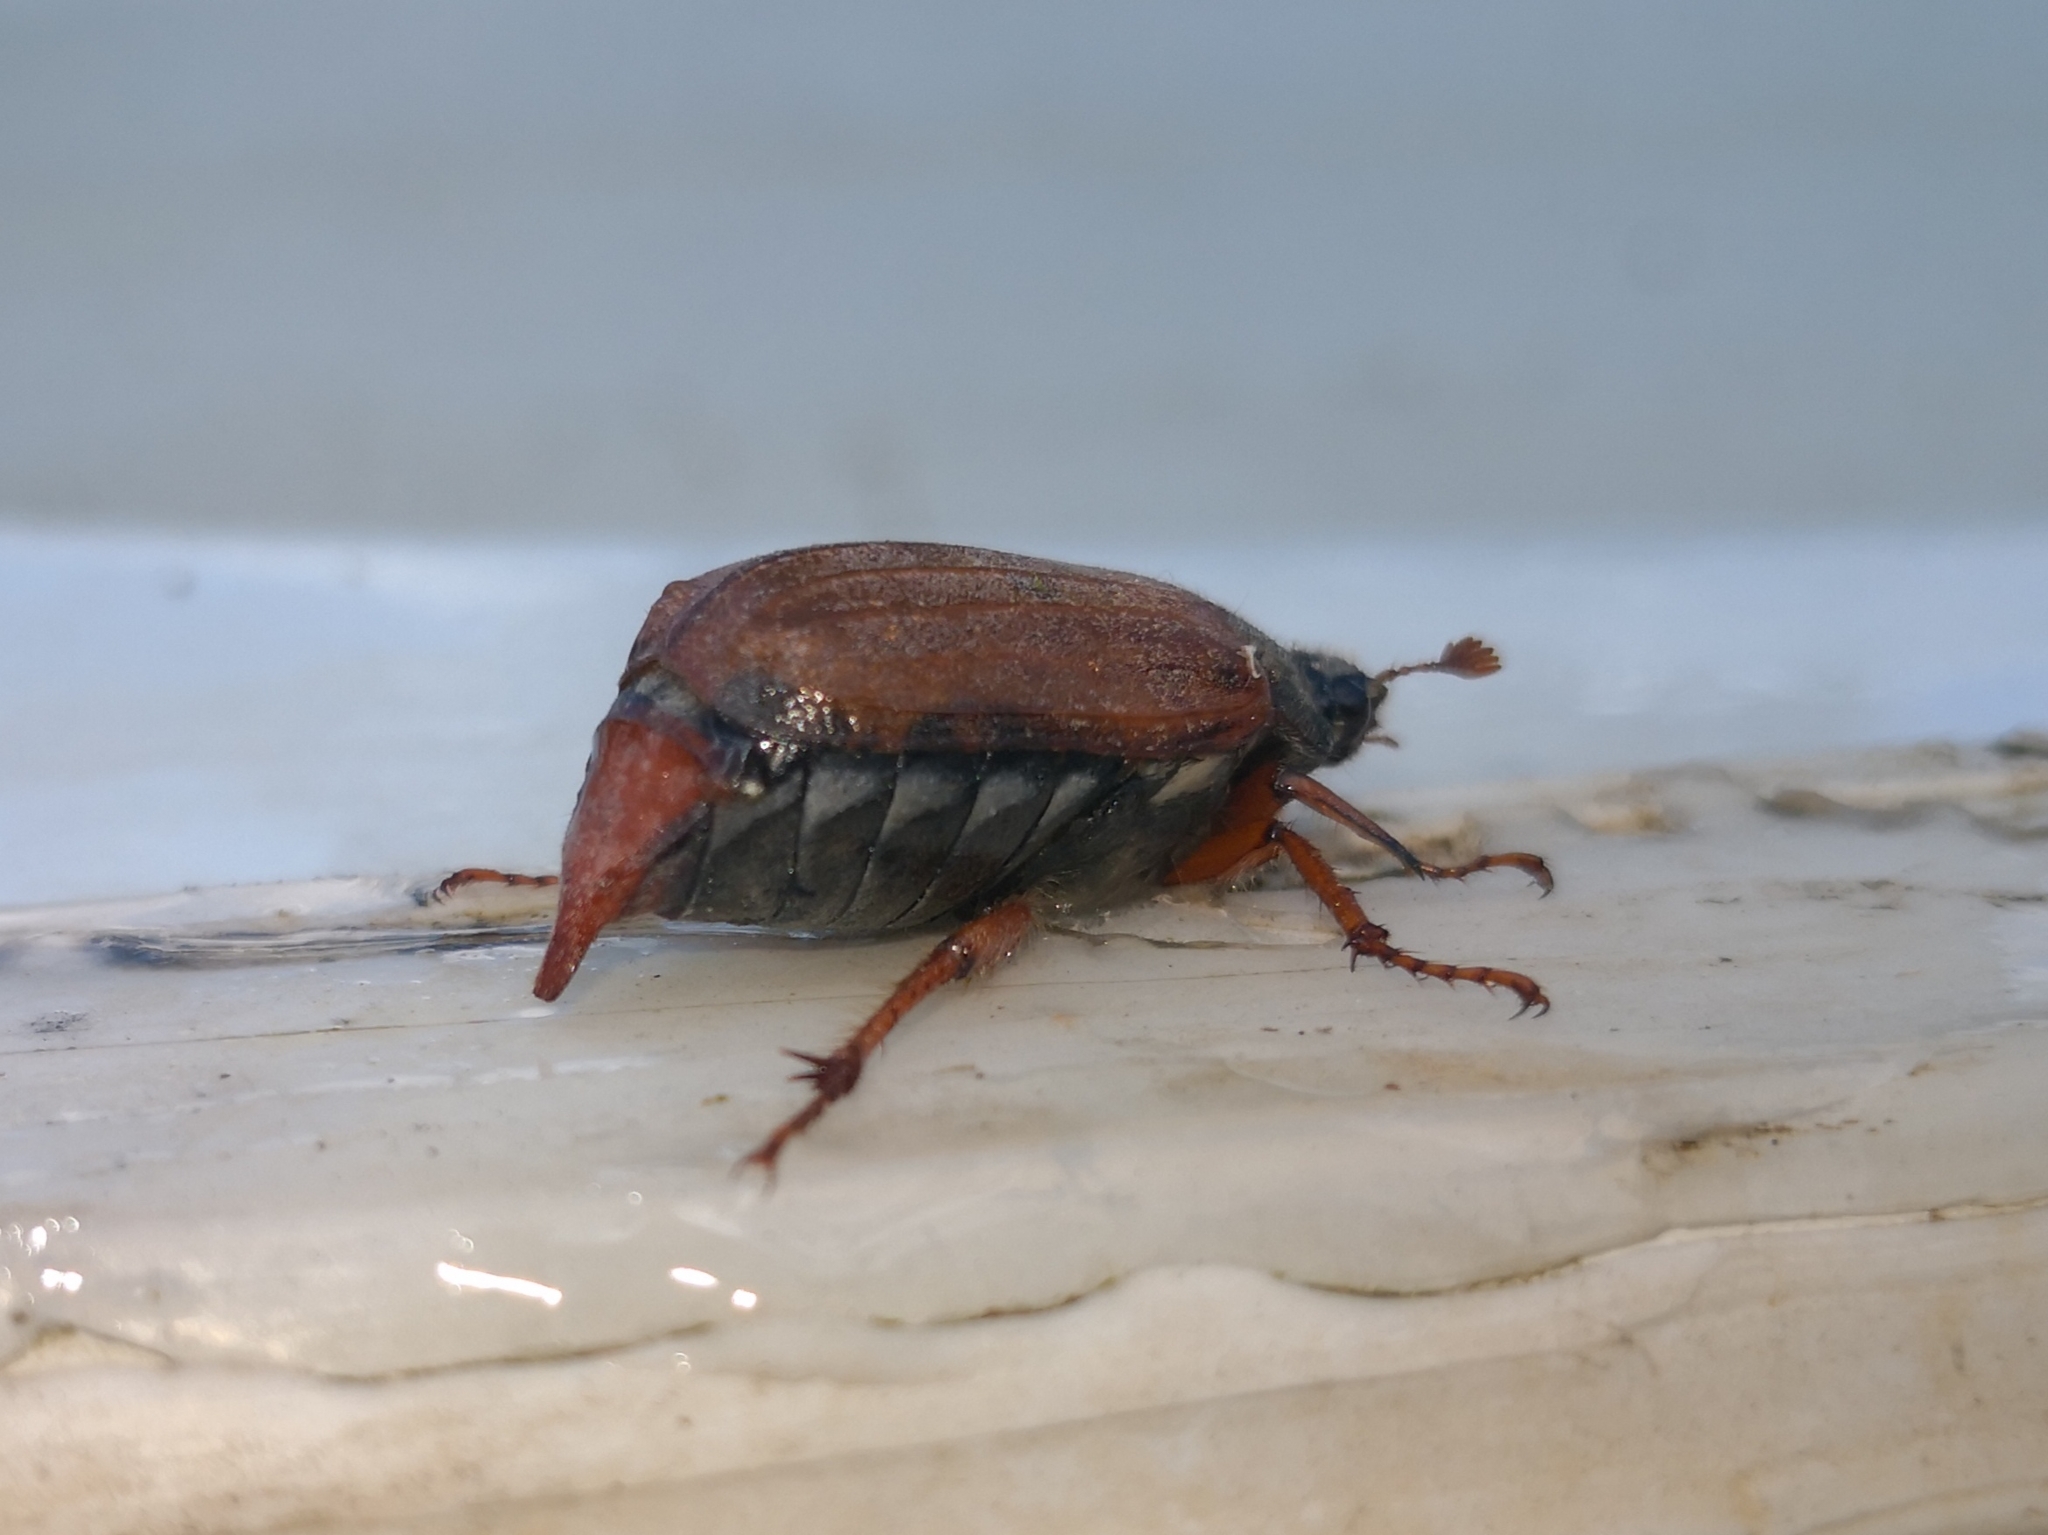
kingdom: Animalia
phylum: Arthropoda
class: Insecta
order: Coleoptera
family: Scarabaeidae
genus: Melolontha
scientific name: Melolontha melolontha
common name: Cockchafer maybeetle
